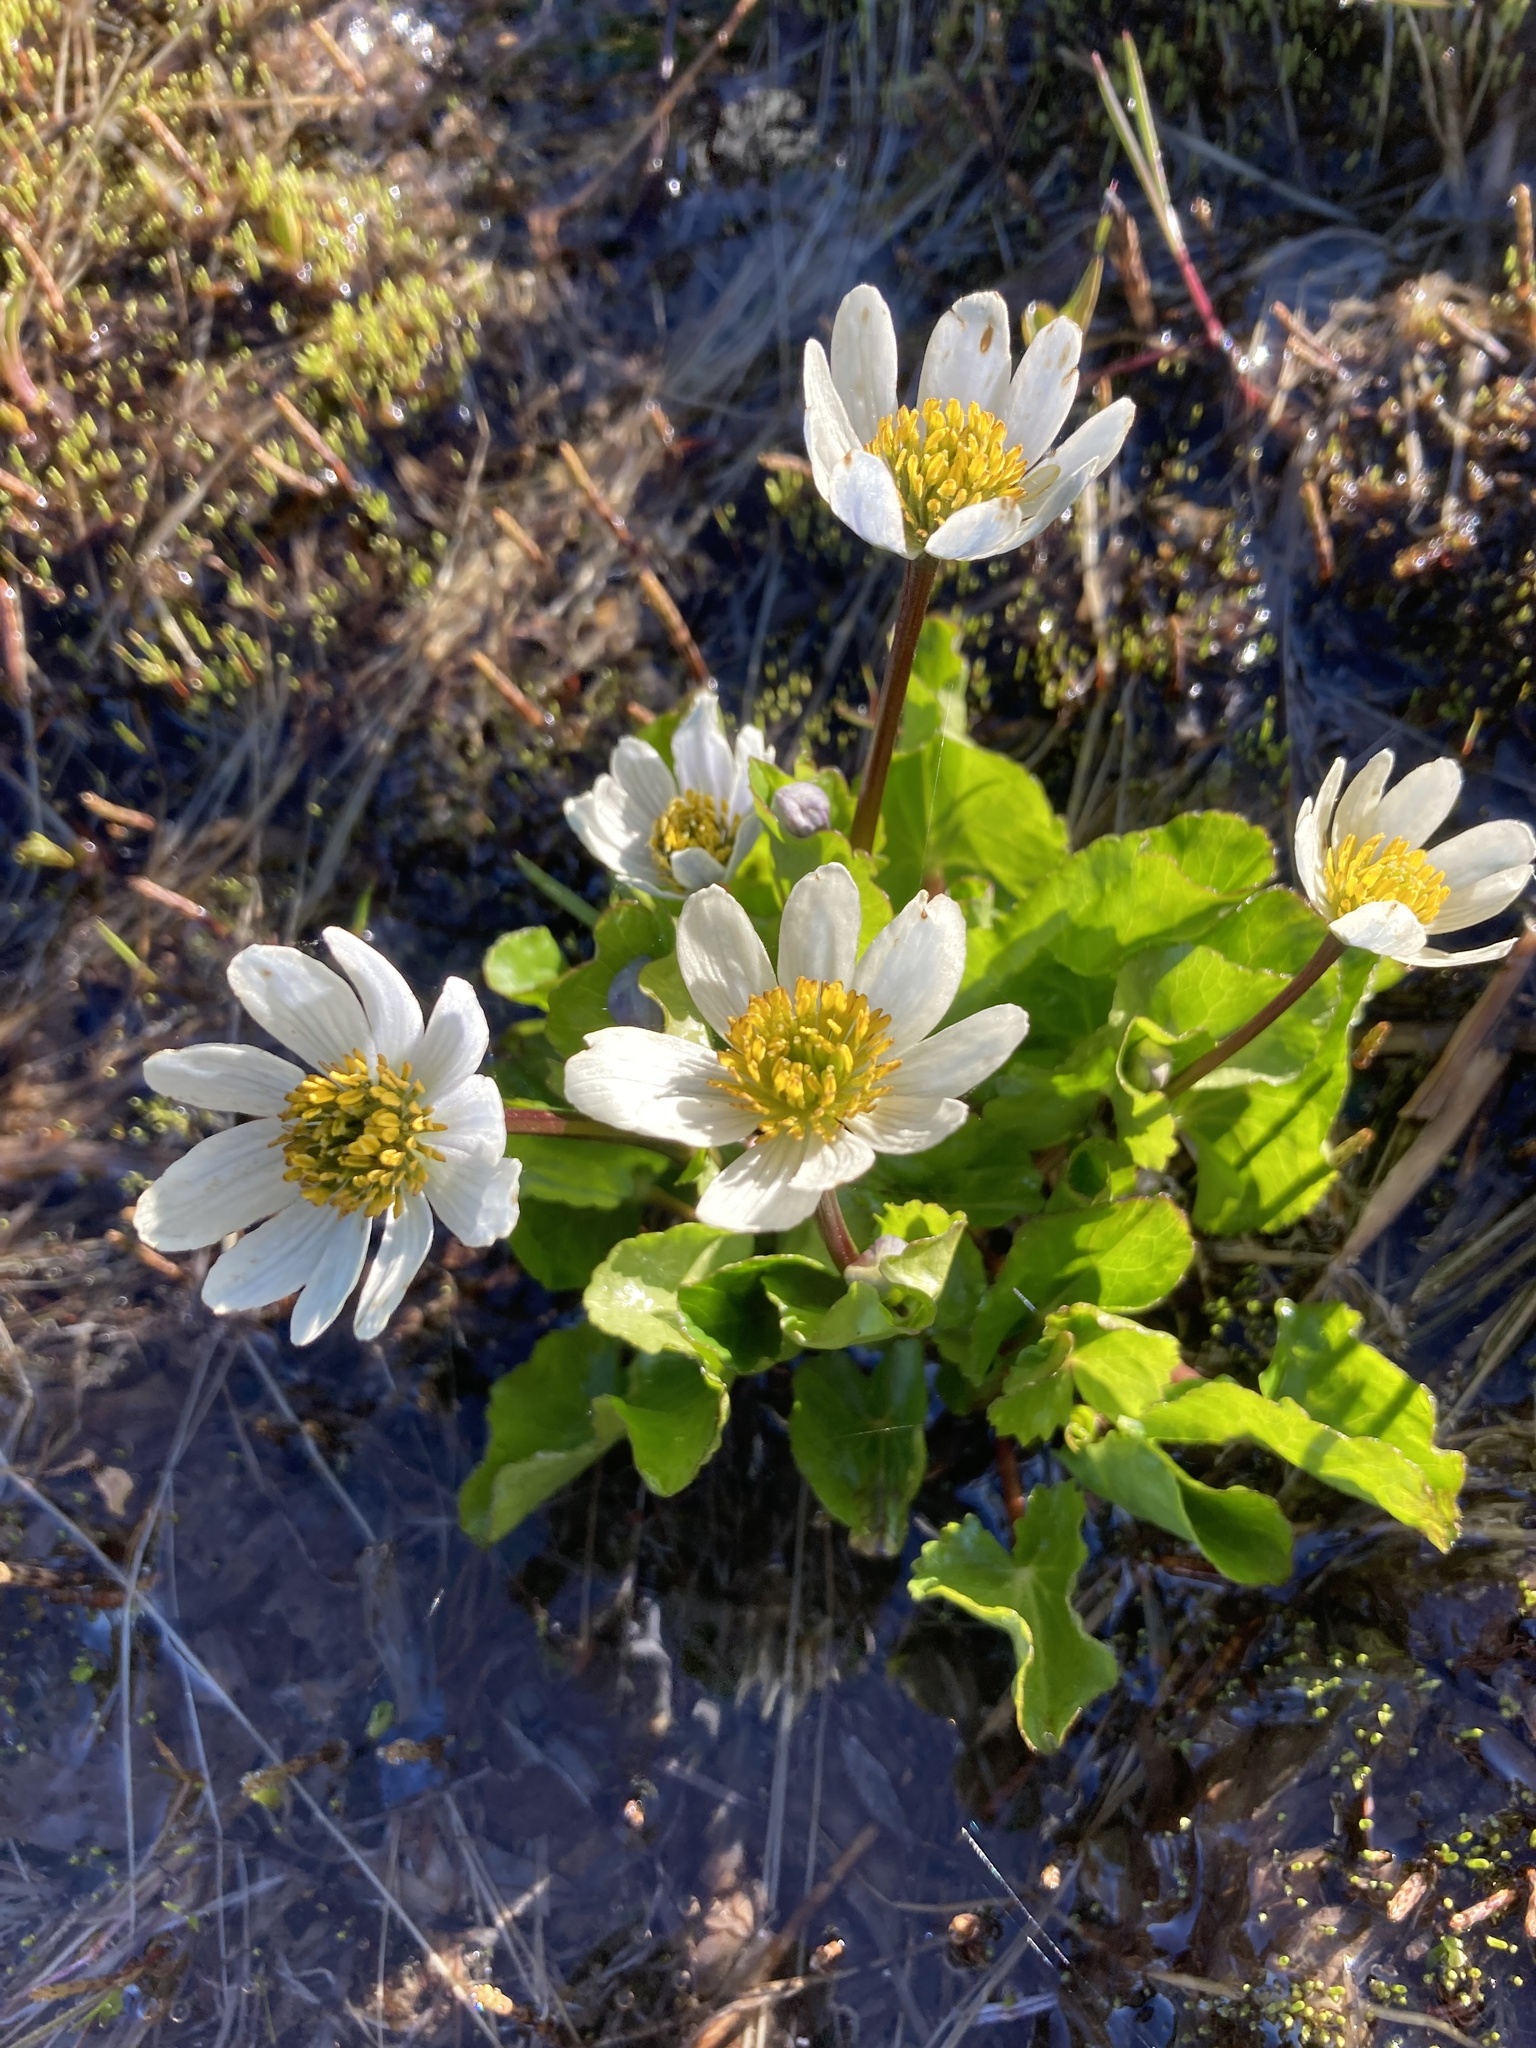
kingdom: Plantae
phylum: Tracheophyta
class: Magnoliopsida
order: Ranunculales
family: Ranunculaceae
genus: Caltha
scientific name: Caltha biflora
